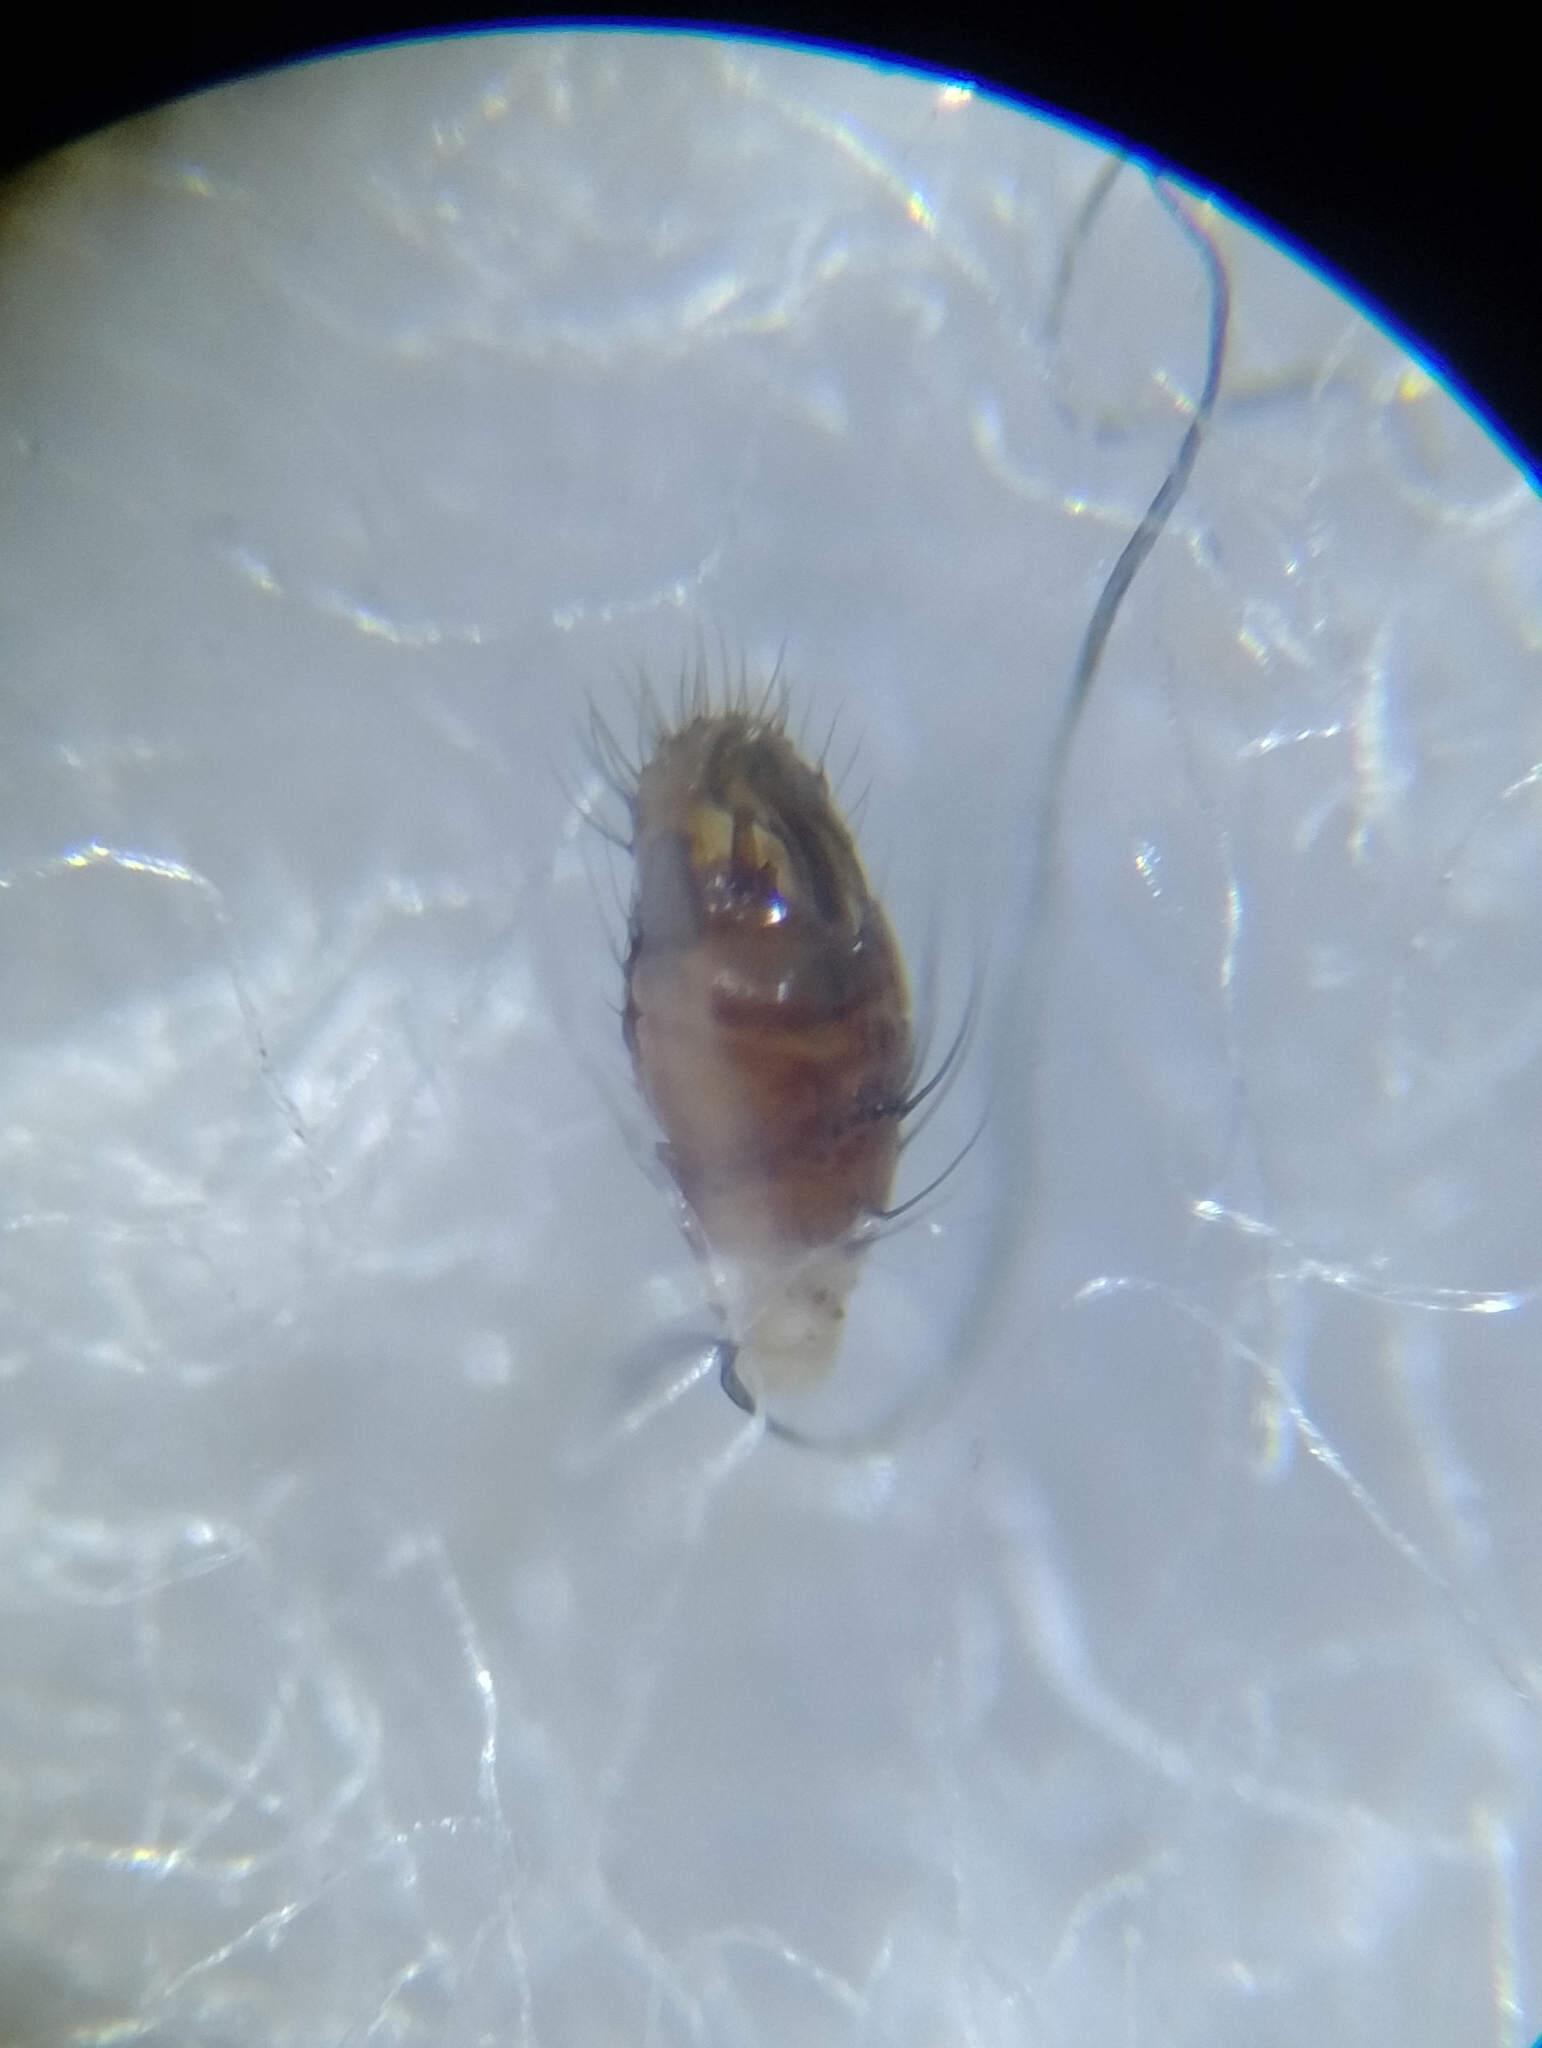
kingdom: Animalia
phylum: Arthropoda
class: Arachnida
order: Araneae
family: Theridiidae
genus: Phylloneta
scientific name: Phylloneta impressa
